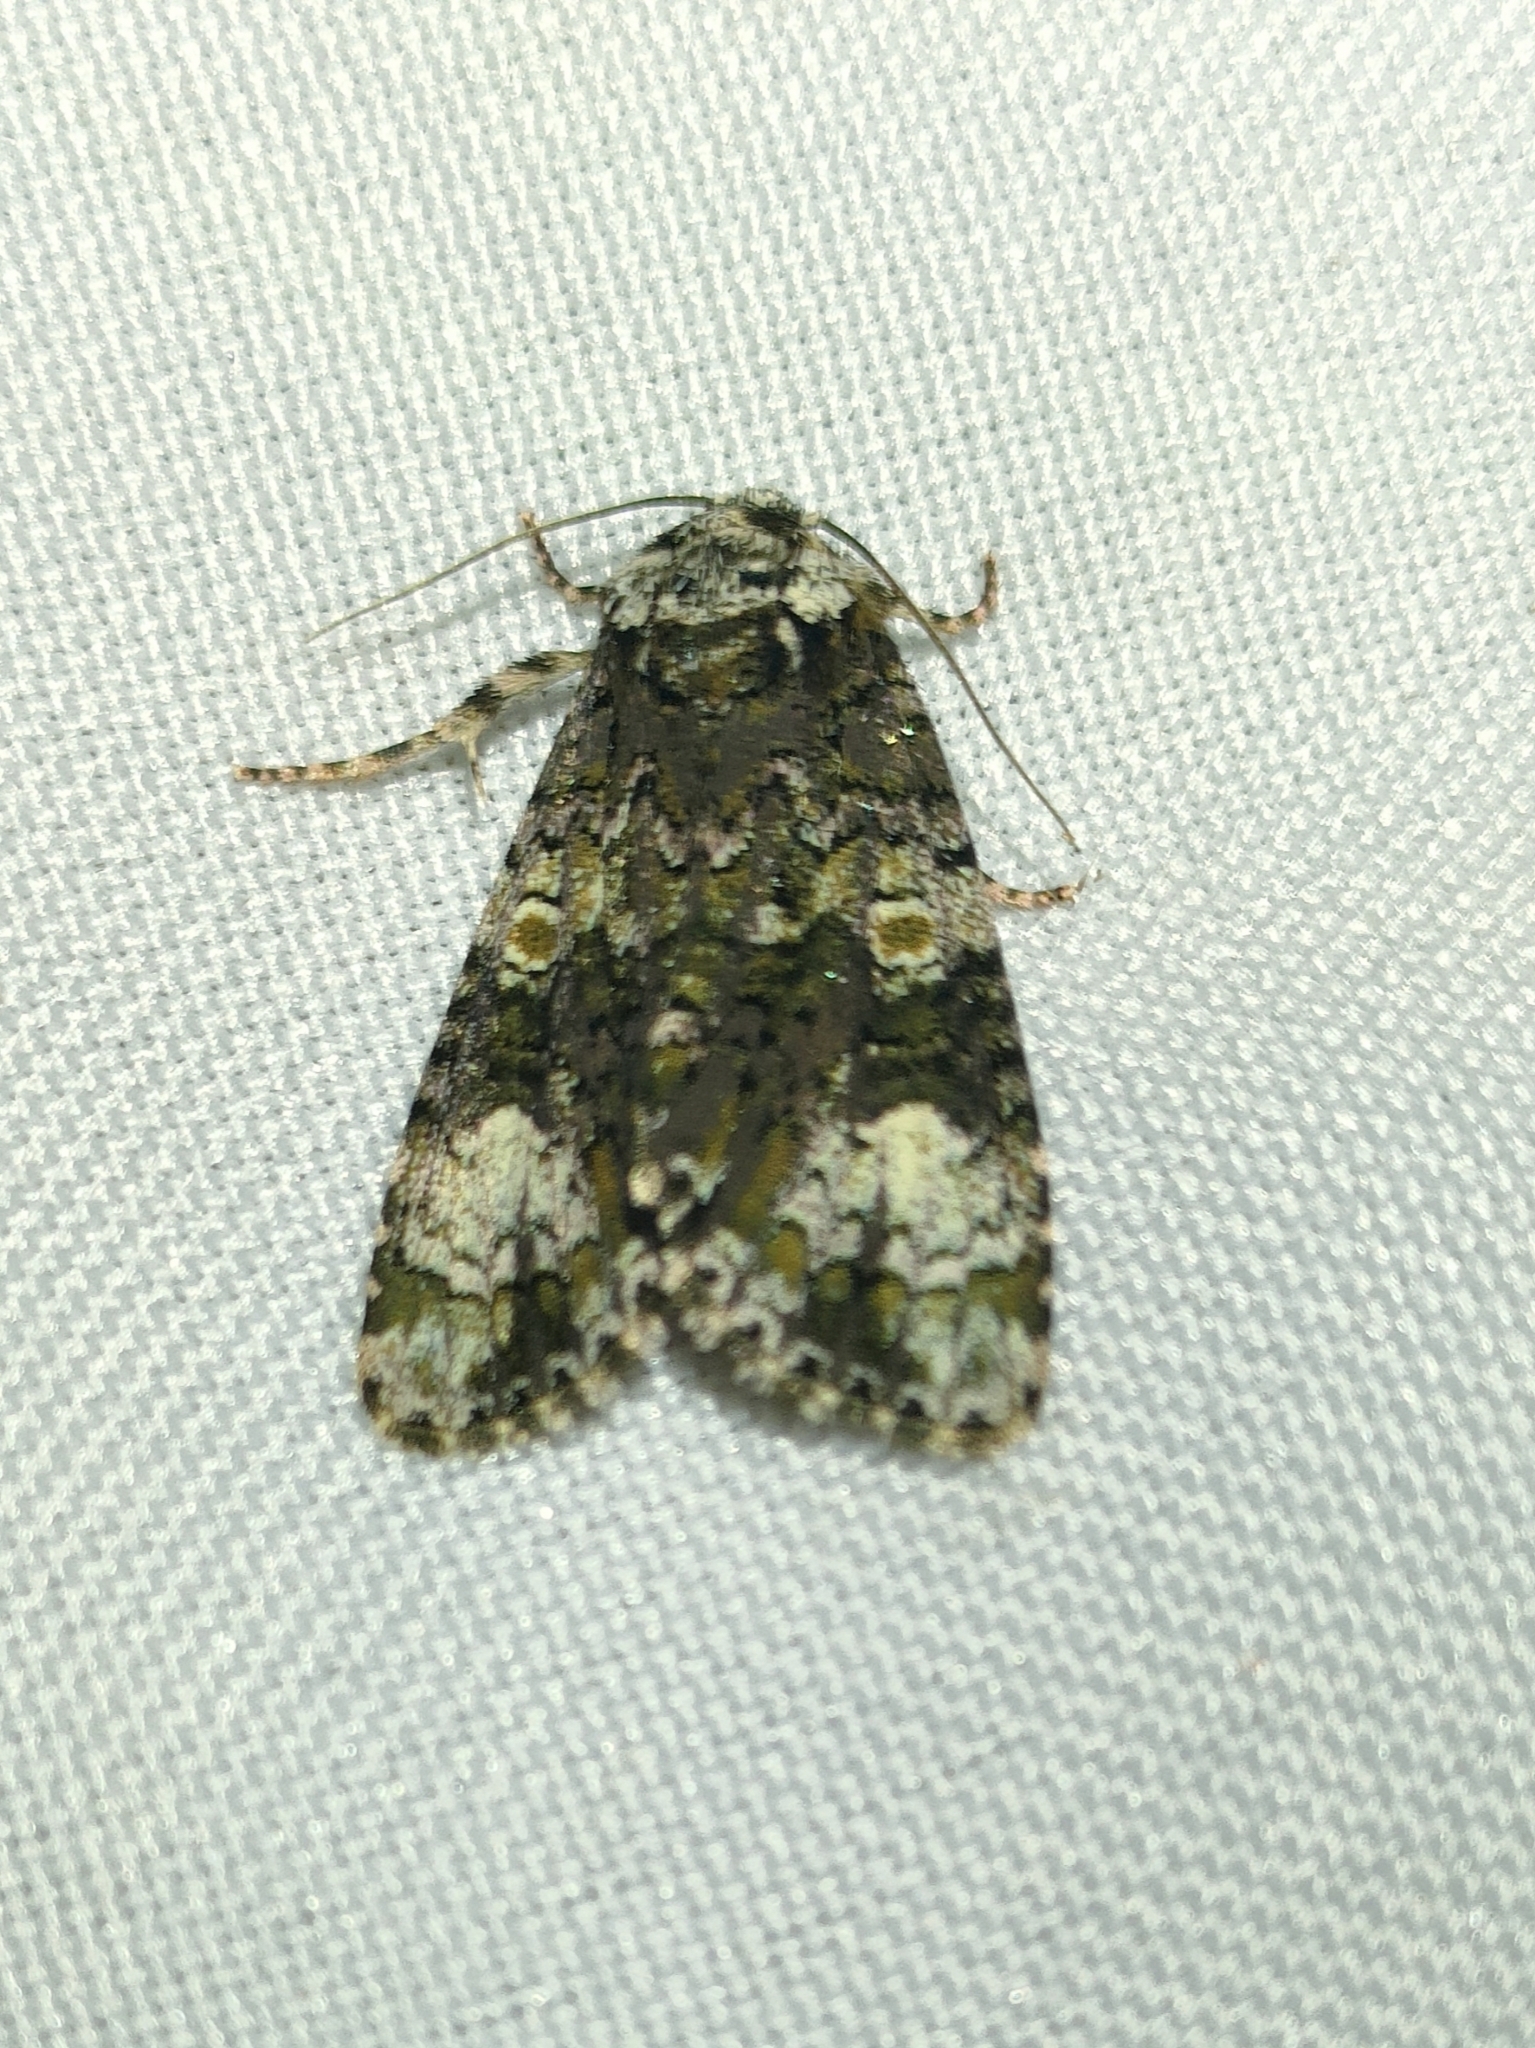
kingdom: Animalia
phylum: Arthropoda
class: Insecta
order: Lepidoptera
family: Noctuidae
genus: Craniophora
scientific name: Craniophora ligustri
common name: Coronet
